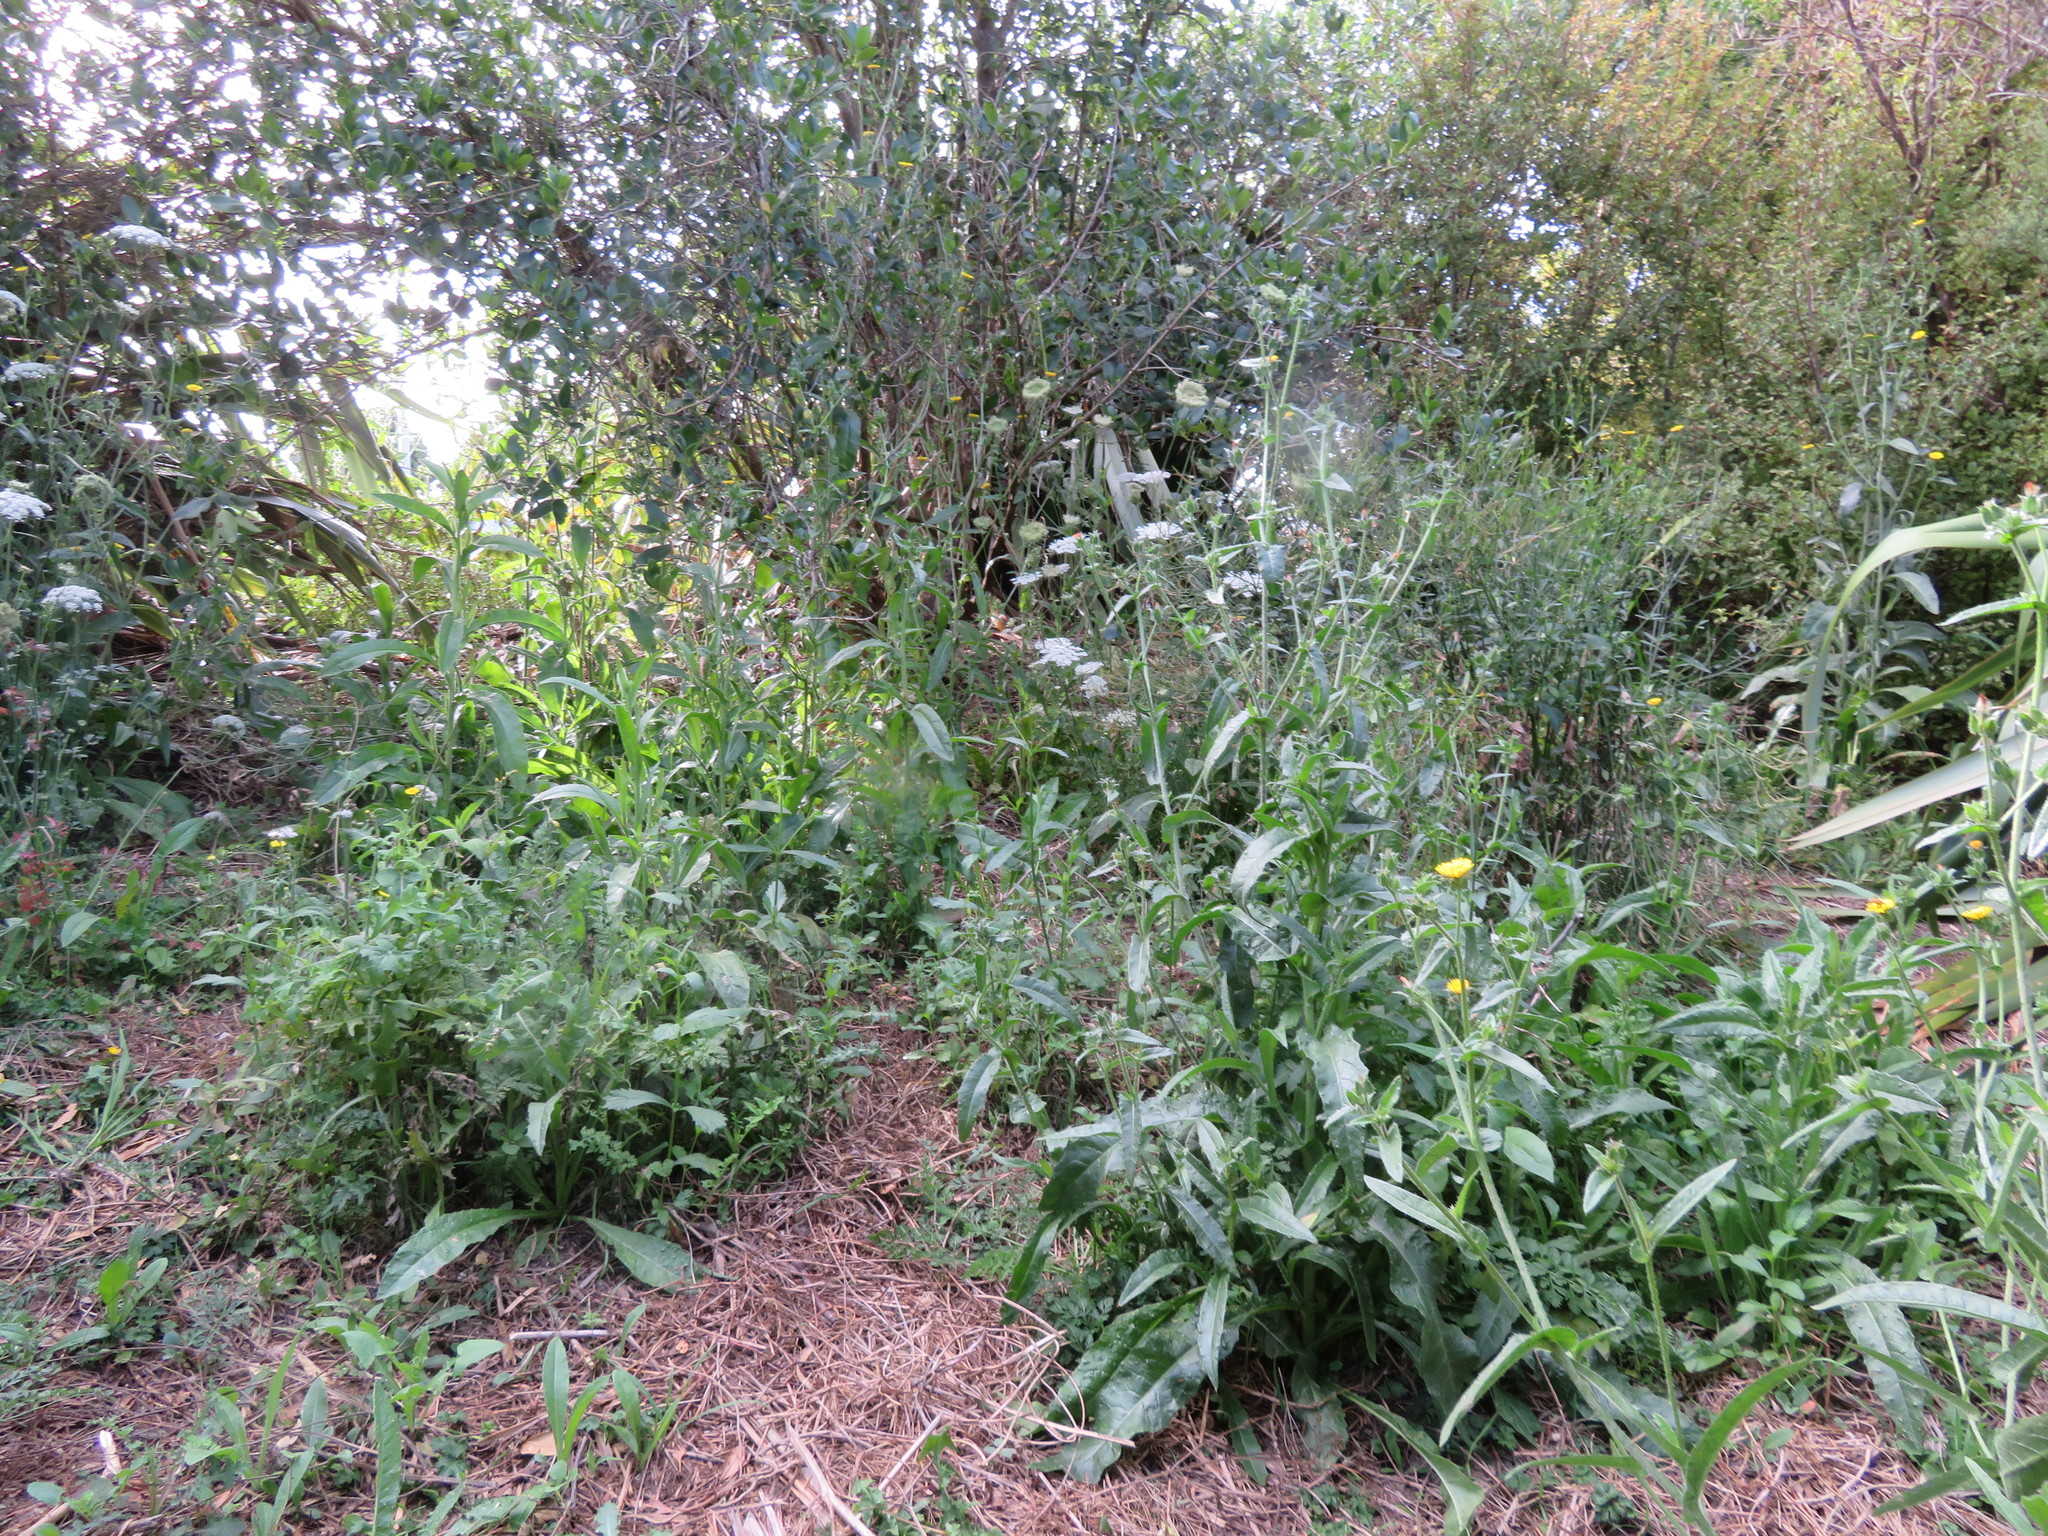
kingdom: Plantae
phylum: Tracheophyta
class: Magnoliopsida
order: Asterales
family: Asteraceae
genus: Helminthotheca
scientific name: Helminthotheca echioides
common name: Ox-tongue
